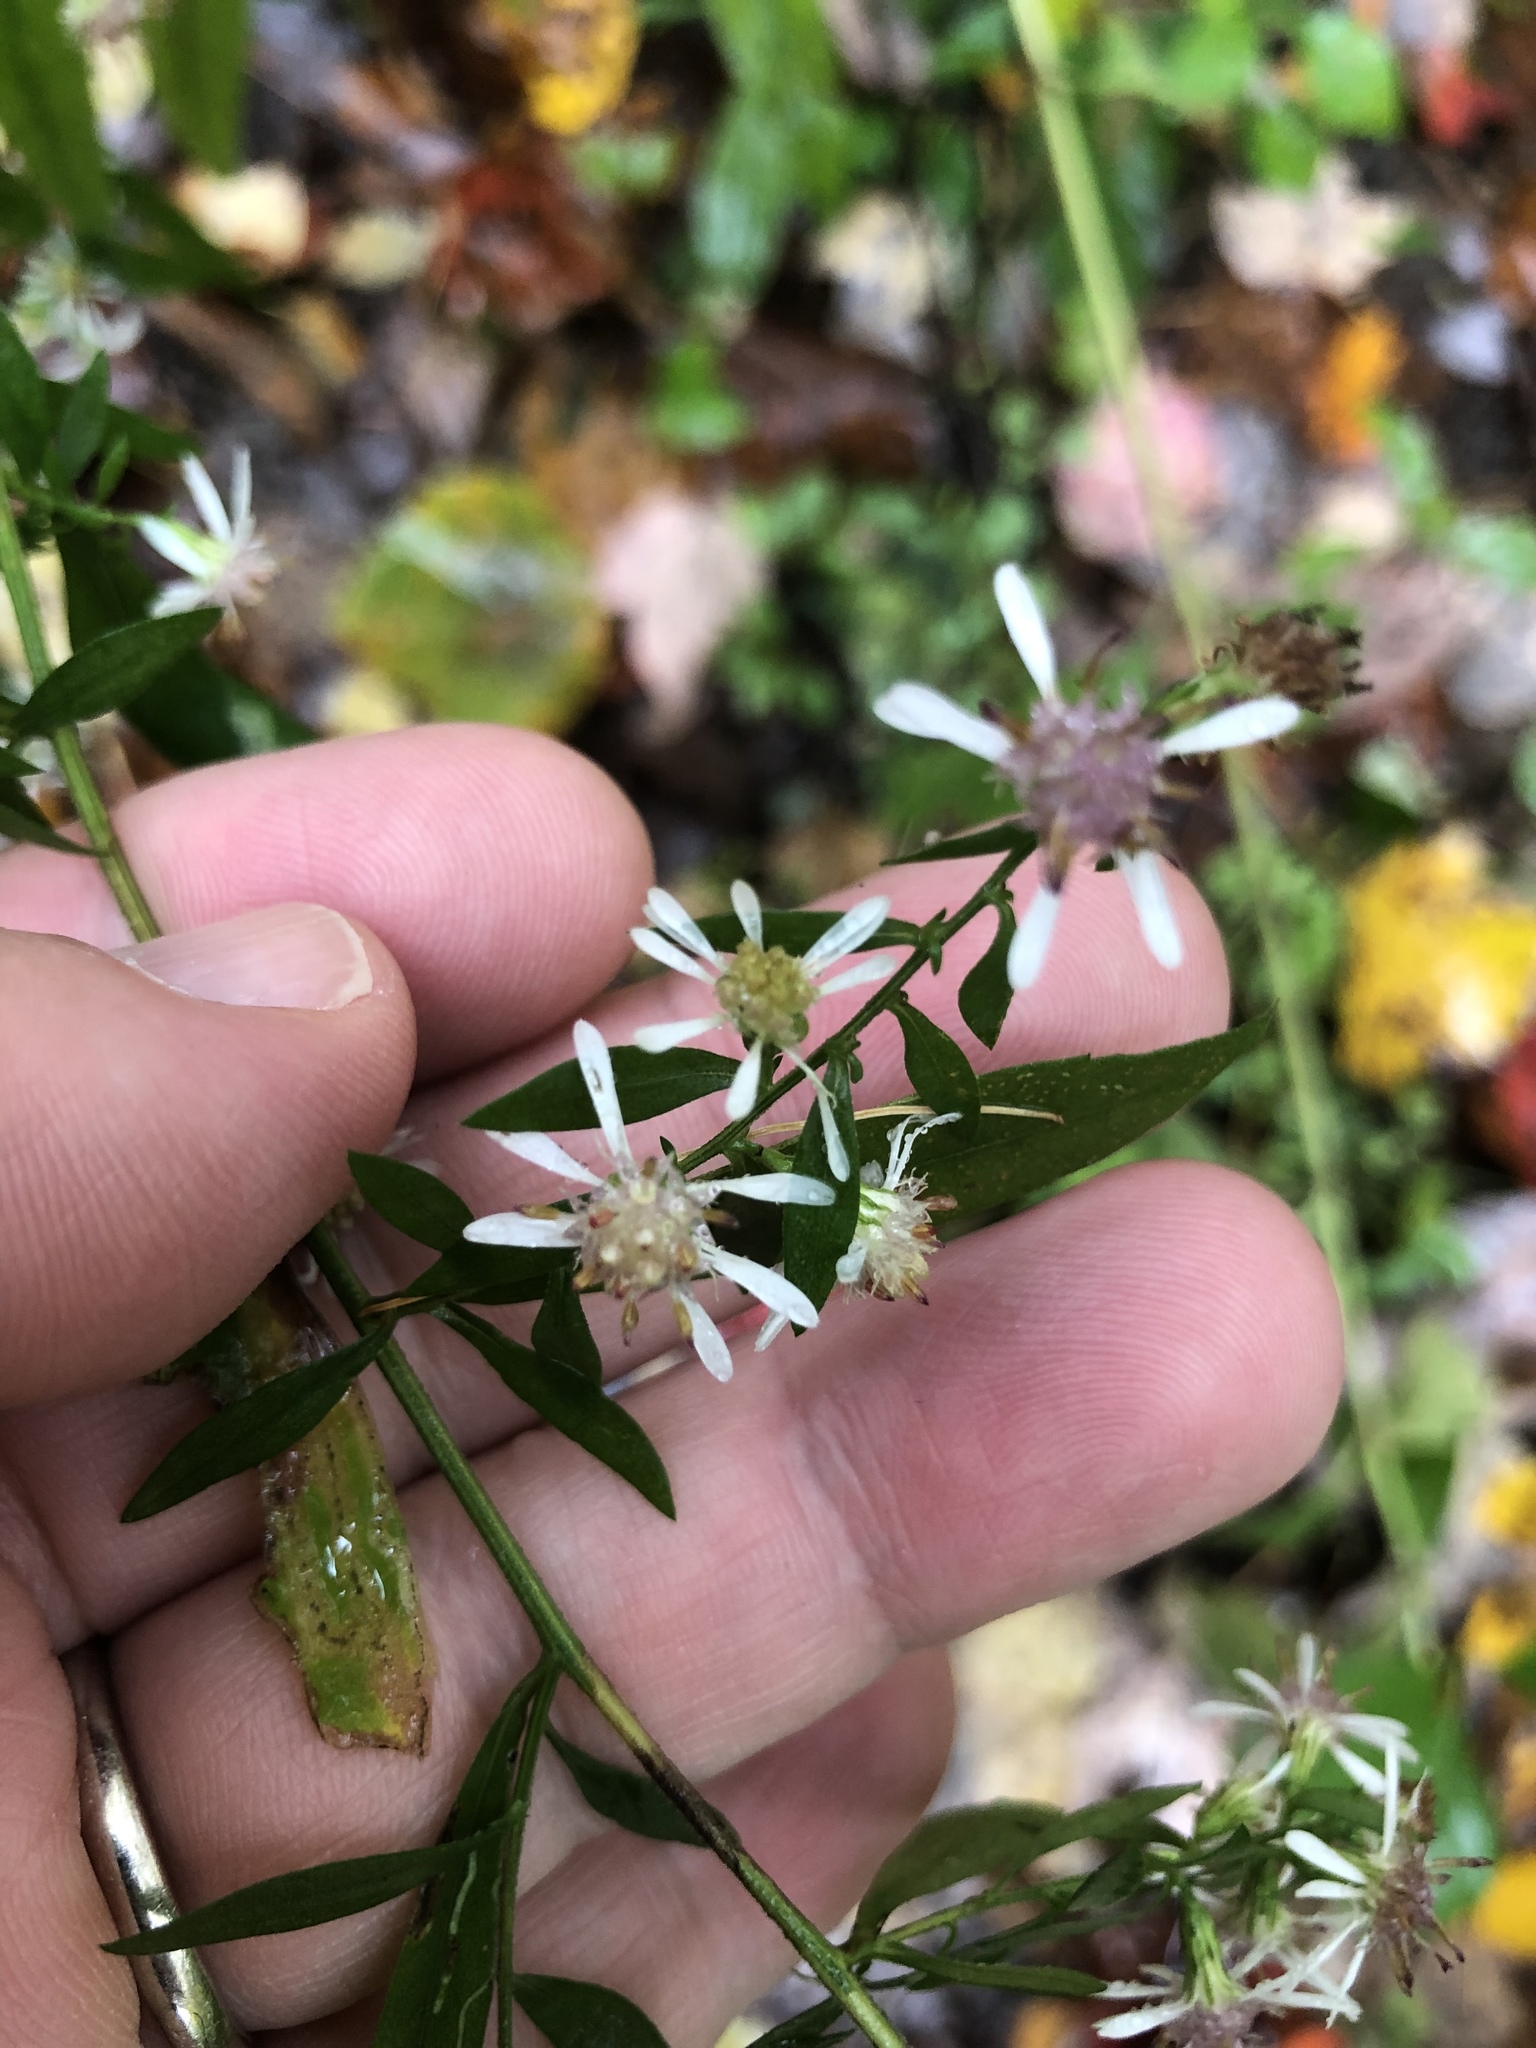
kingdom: Plantae
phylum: Tracheophyta
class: Magnoliopsida
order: Asterales
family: Asteraceae
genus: Symphyotrichum
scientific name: Symphyotrichum lateriflorum
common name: Calico aster
